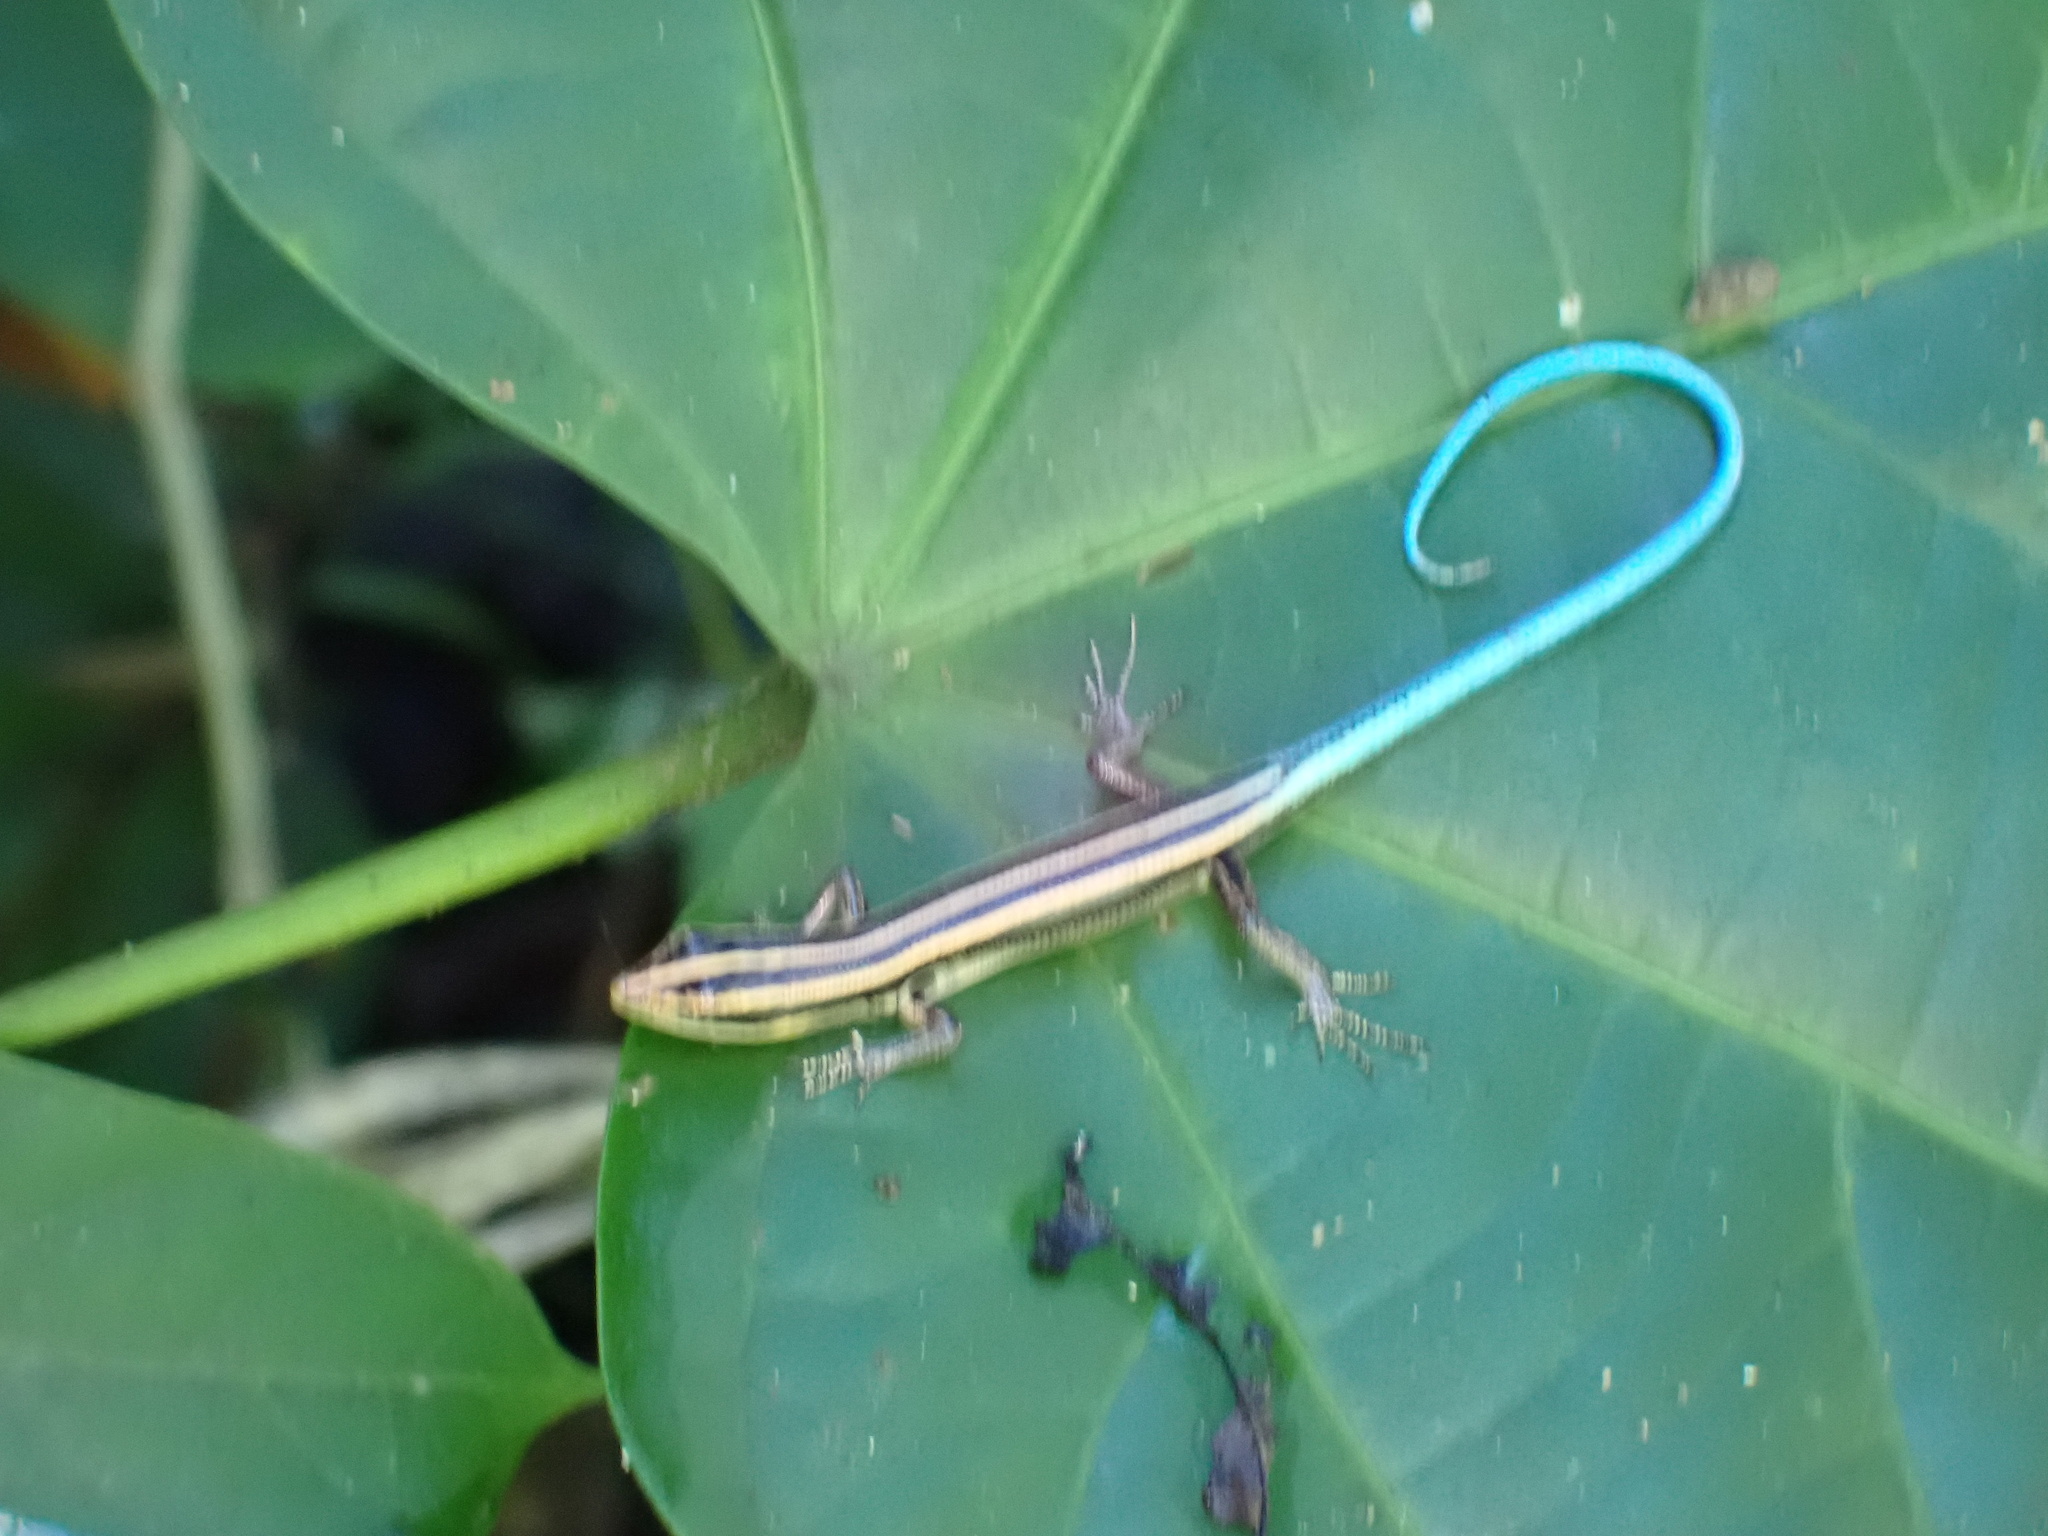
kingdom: Animalia
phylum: Chordata
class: Squamata
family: Scincidae
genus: Emoia
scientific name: Emoia caeruleocauda
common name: Pacific bluetail skink
